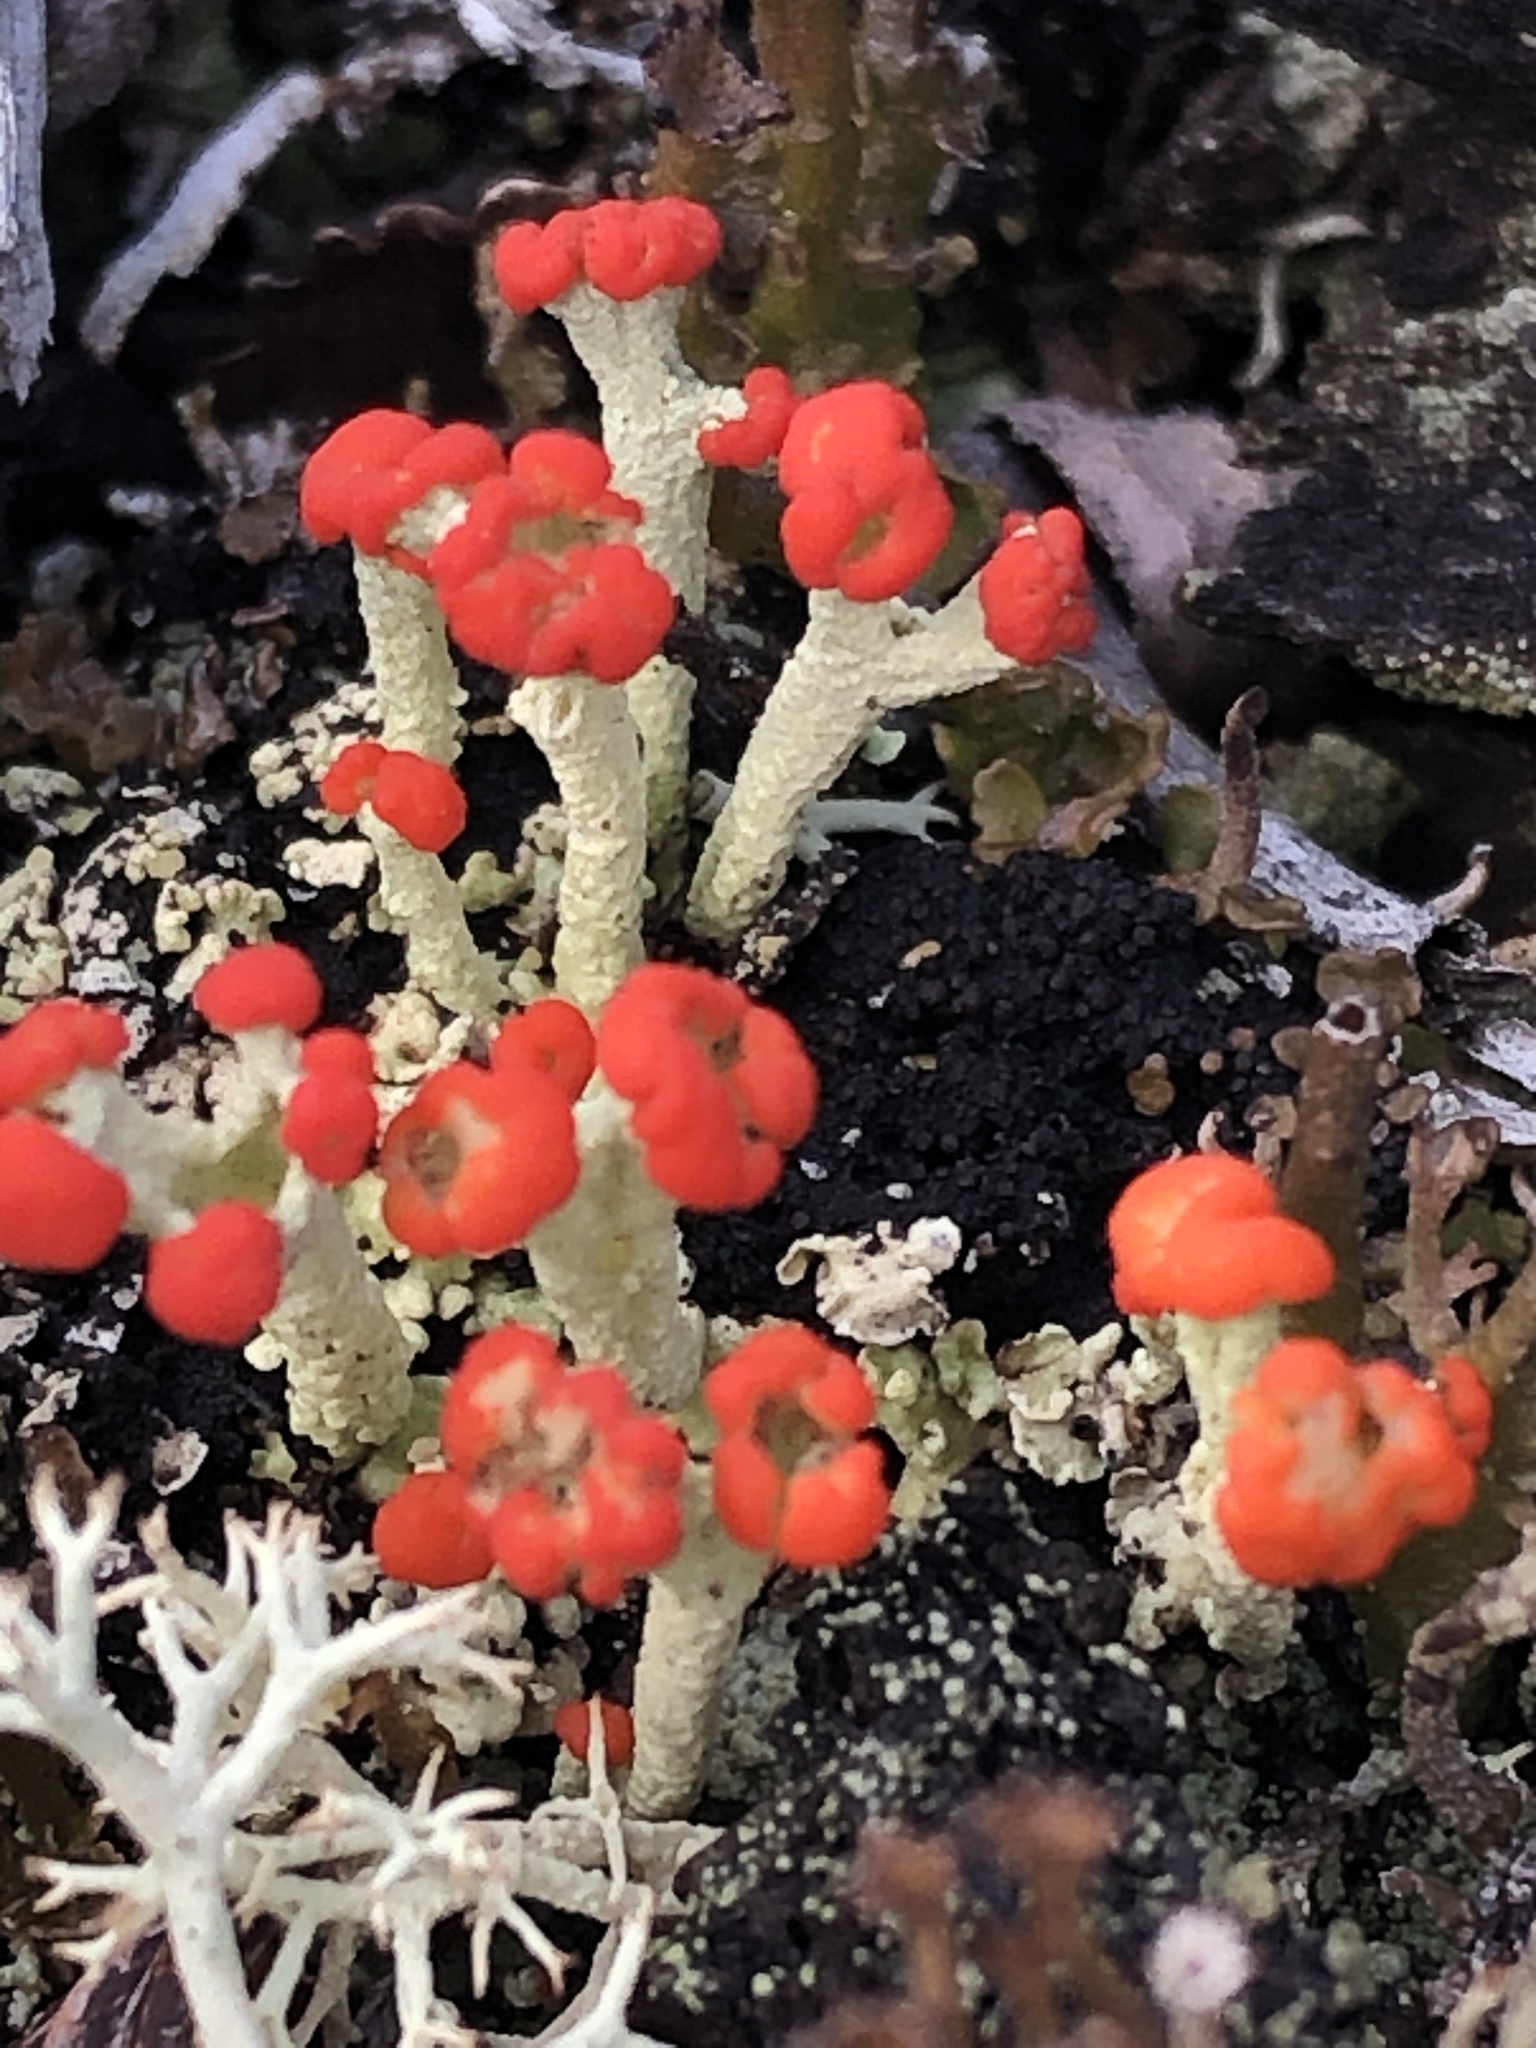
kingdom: Fungi
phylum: Ascomycota
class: Lecanoromycetes
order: Lecanorales
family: Cladoniaceae
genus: Cladonia
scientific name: Cladonia cristatella
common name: British soldier lichen
